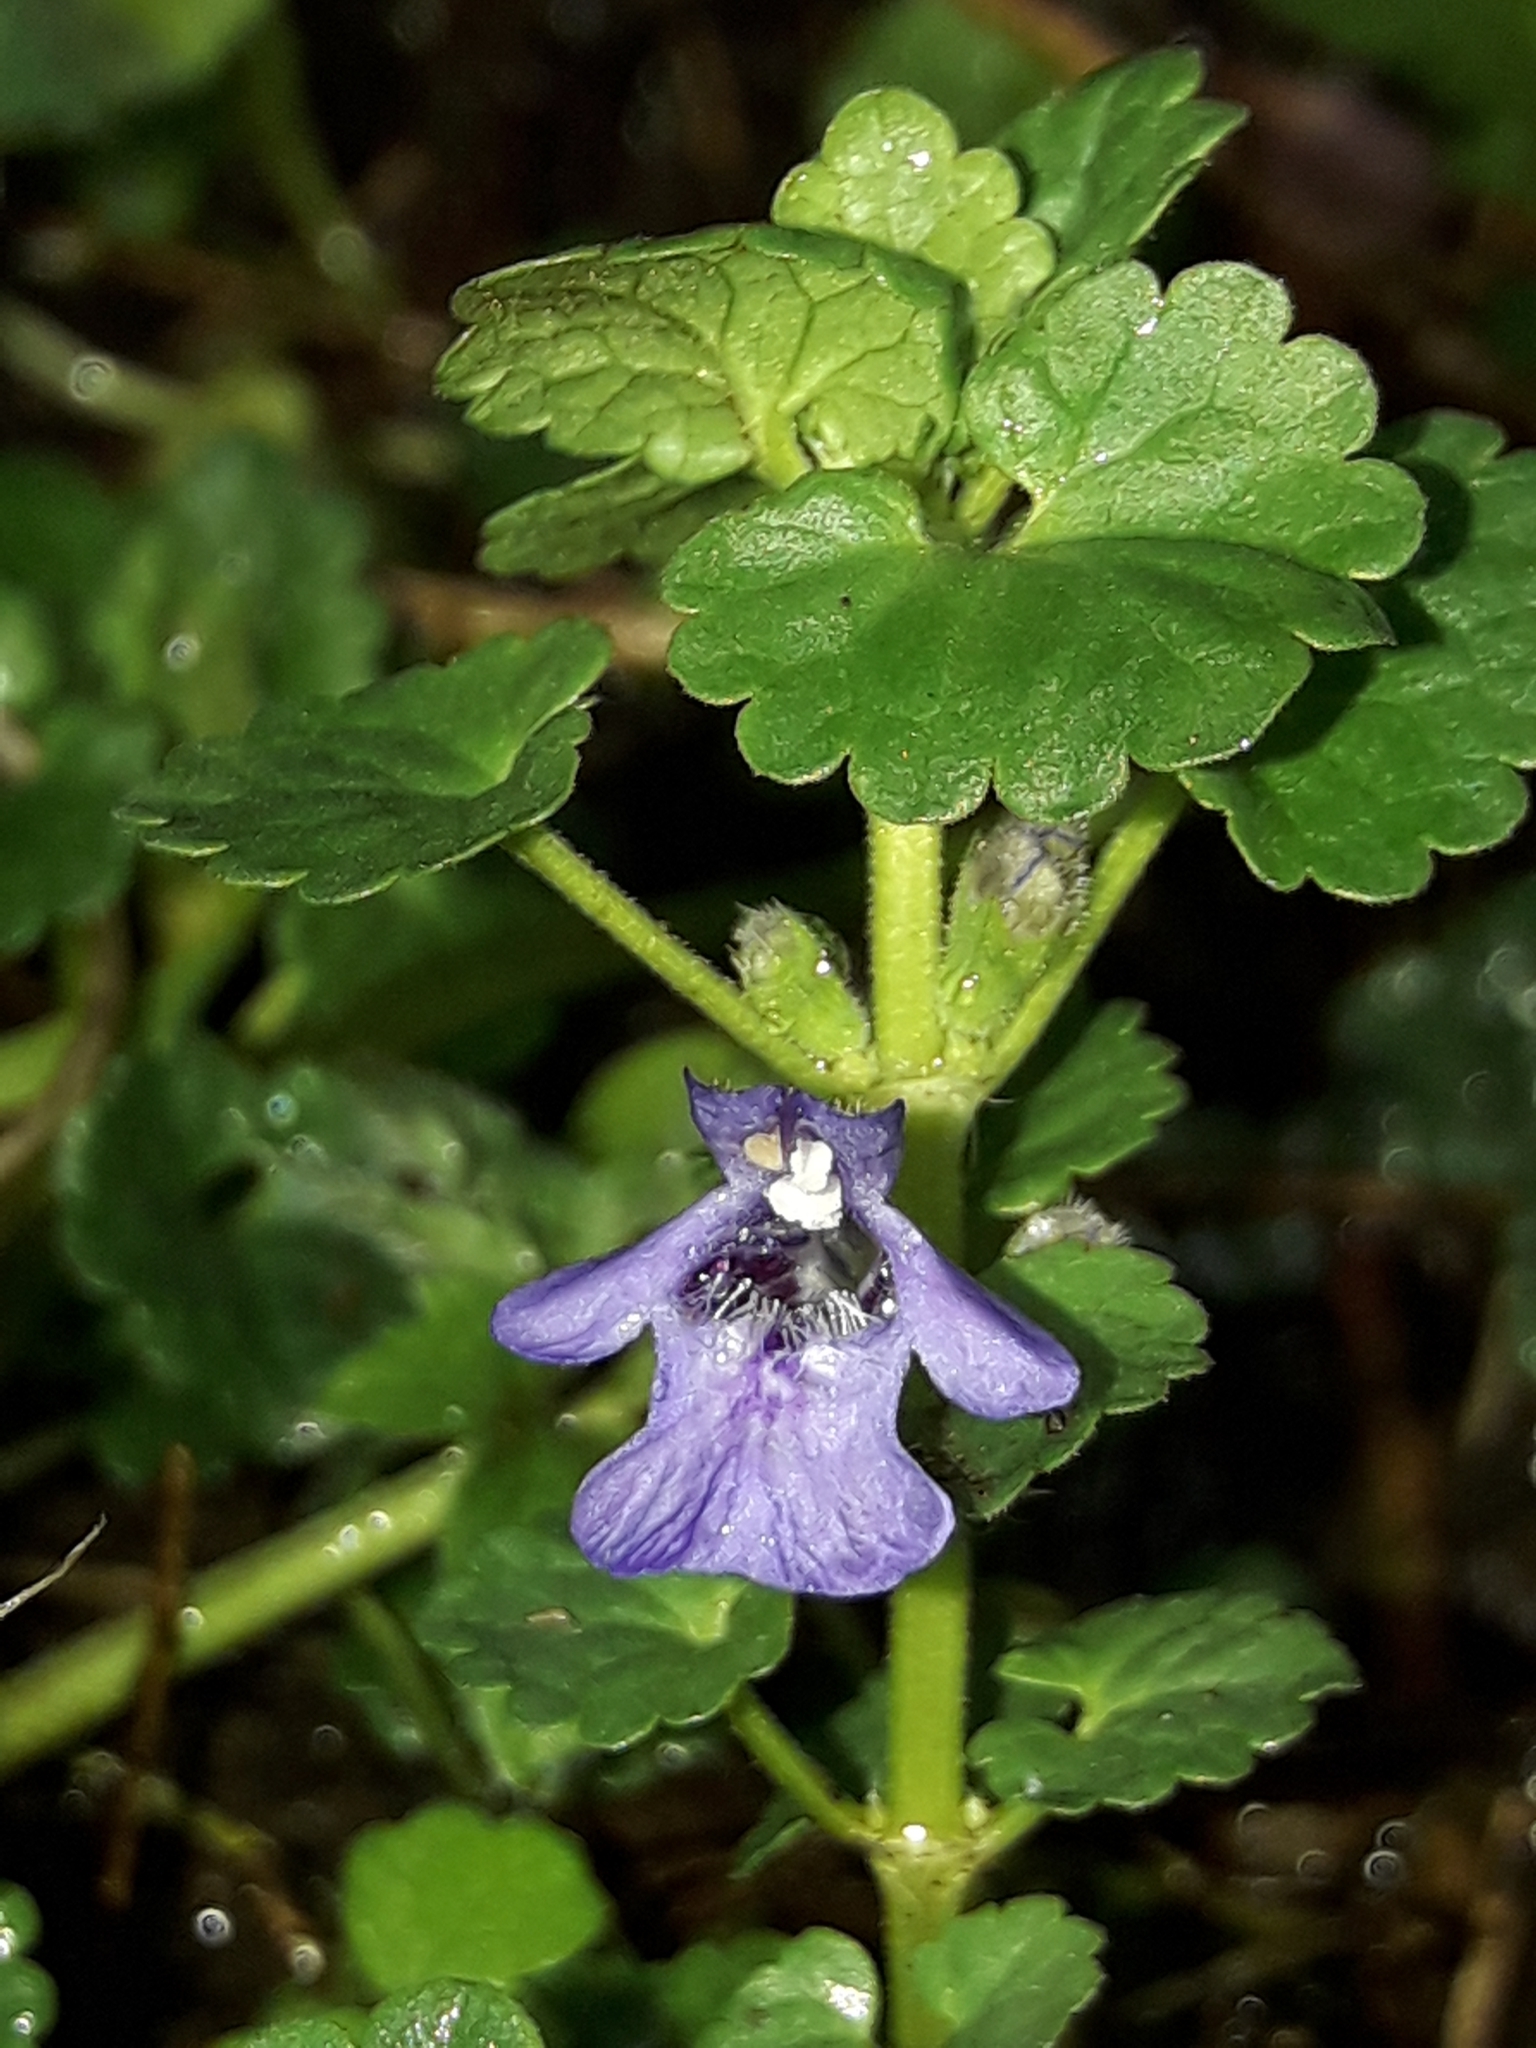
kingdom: Plantae
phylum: Tracheophyta
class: Magnoliopsida
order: Lamiales
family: Lamiaceae
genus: Glechoma
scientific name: Glechoma hederacea
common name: Ground ivy
